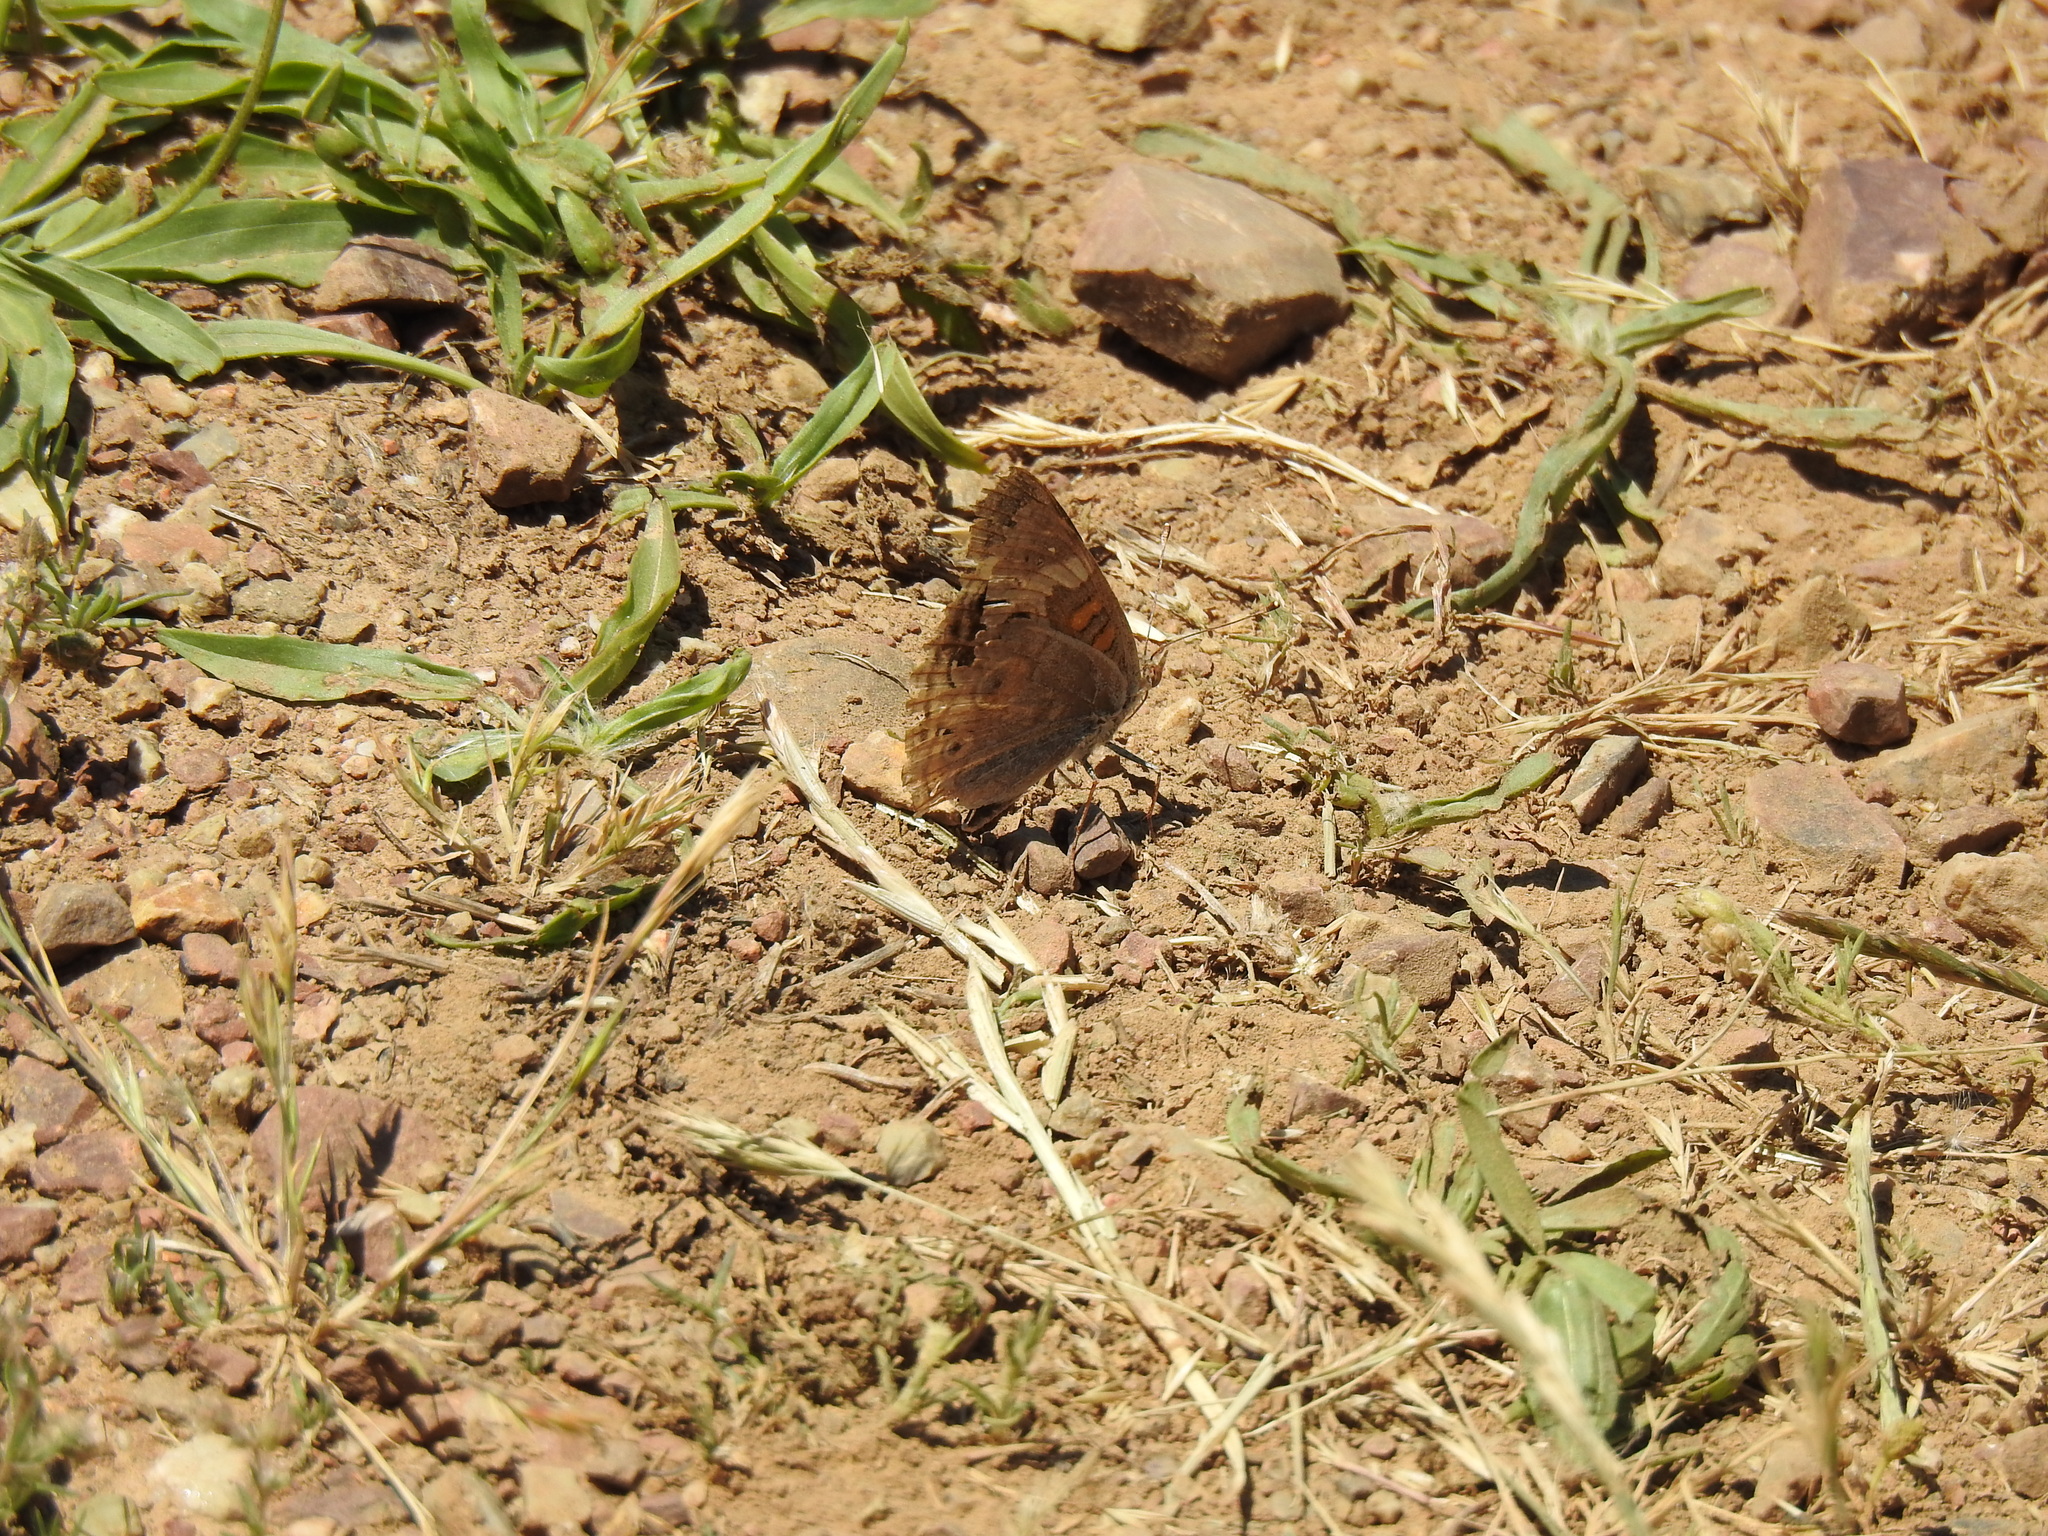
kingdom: Animalia
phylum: Arthropoda
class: Insecta
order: Lepidoptera
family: Nymphalidae
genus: Junonia
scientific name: Junonia grisea
